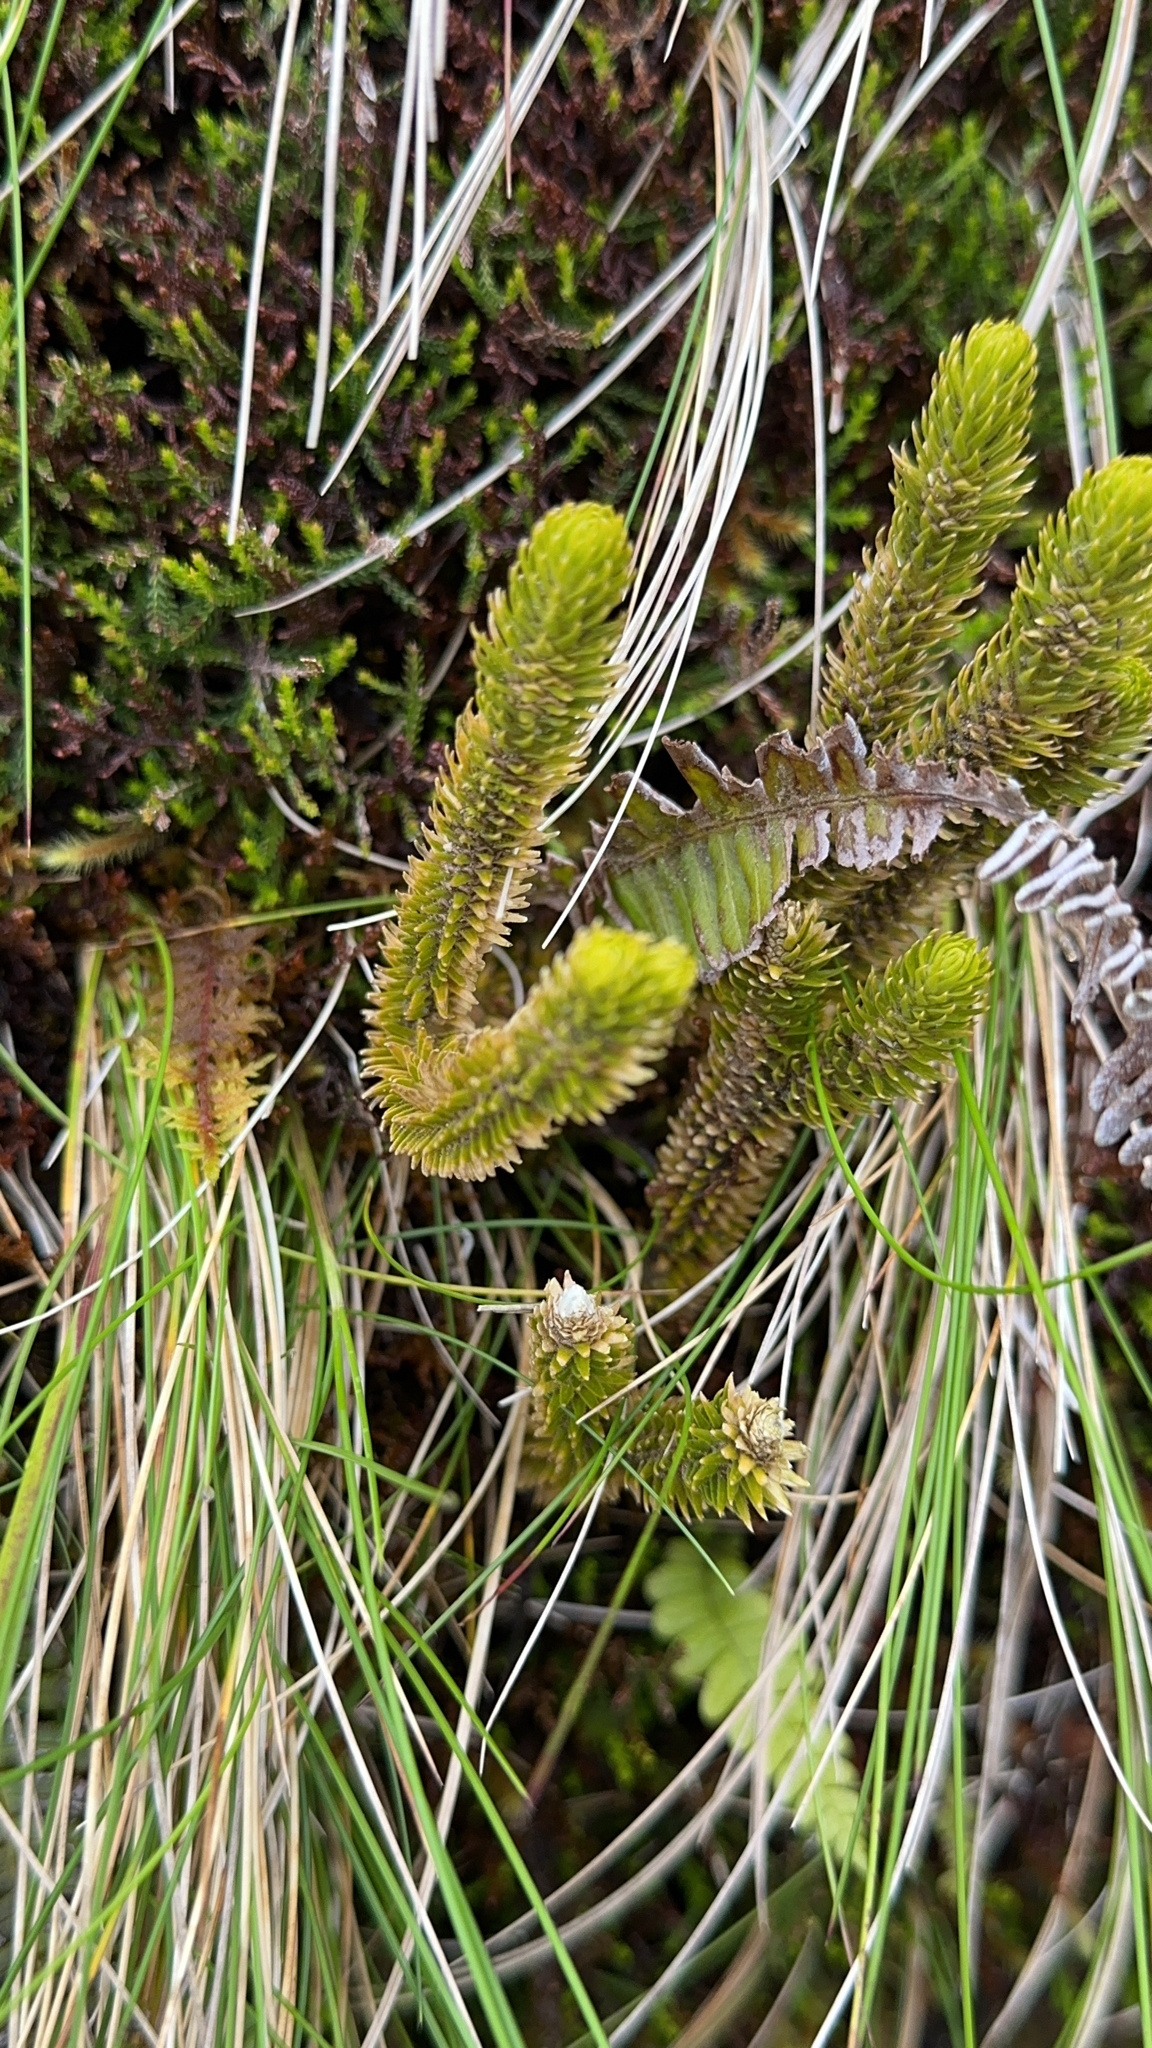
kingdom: Plantae
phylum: Tracheophyta
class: Lycopodiopsida
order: Lycopodiales
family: Lycopodiaceae
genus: Phlegmariurus
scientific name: Phlegmariurus dentatus
